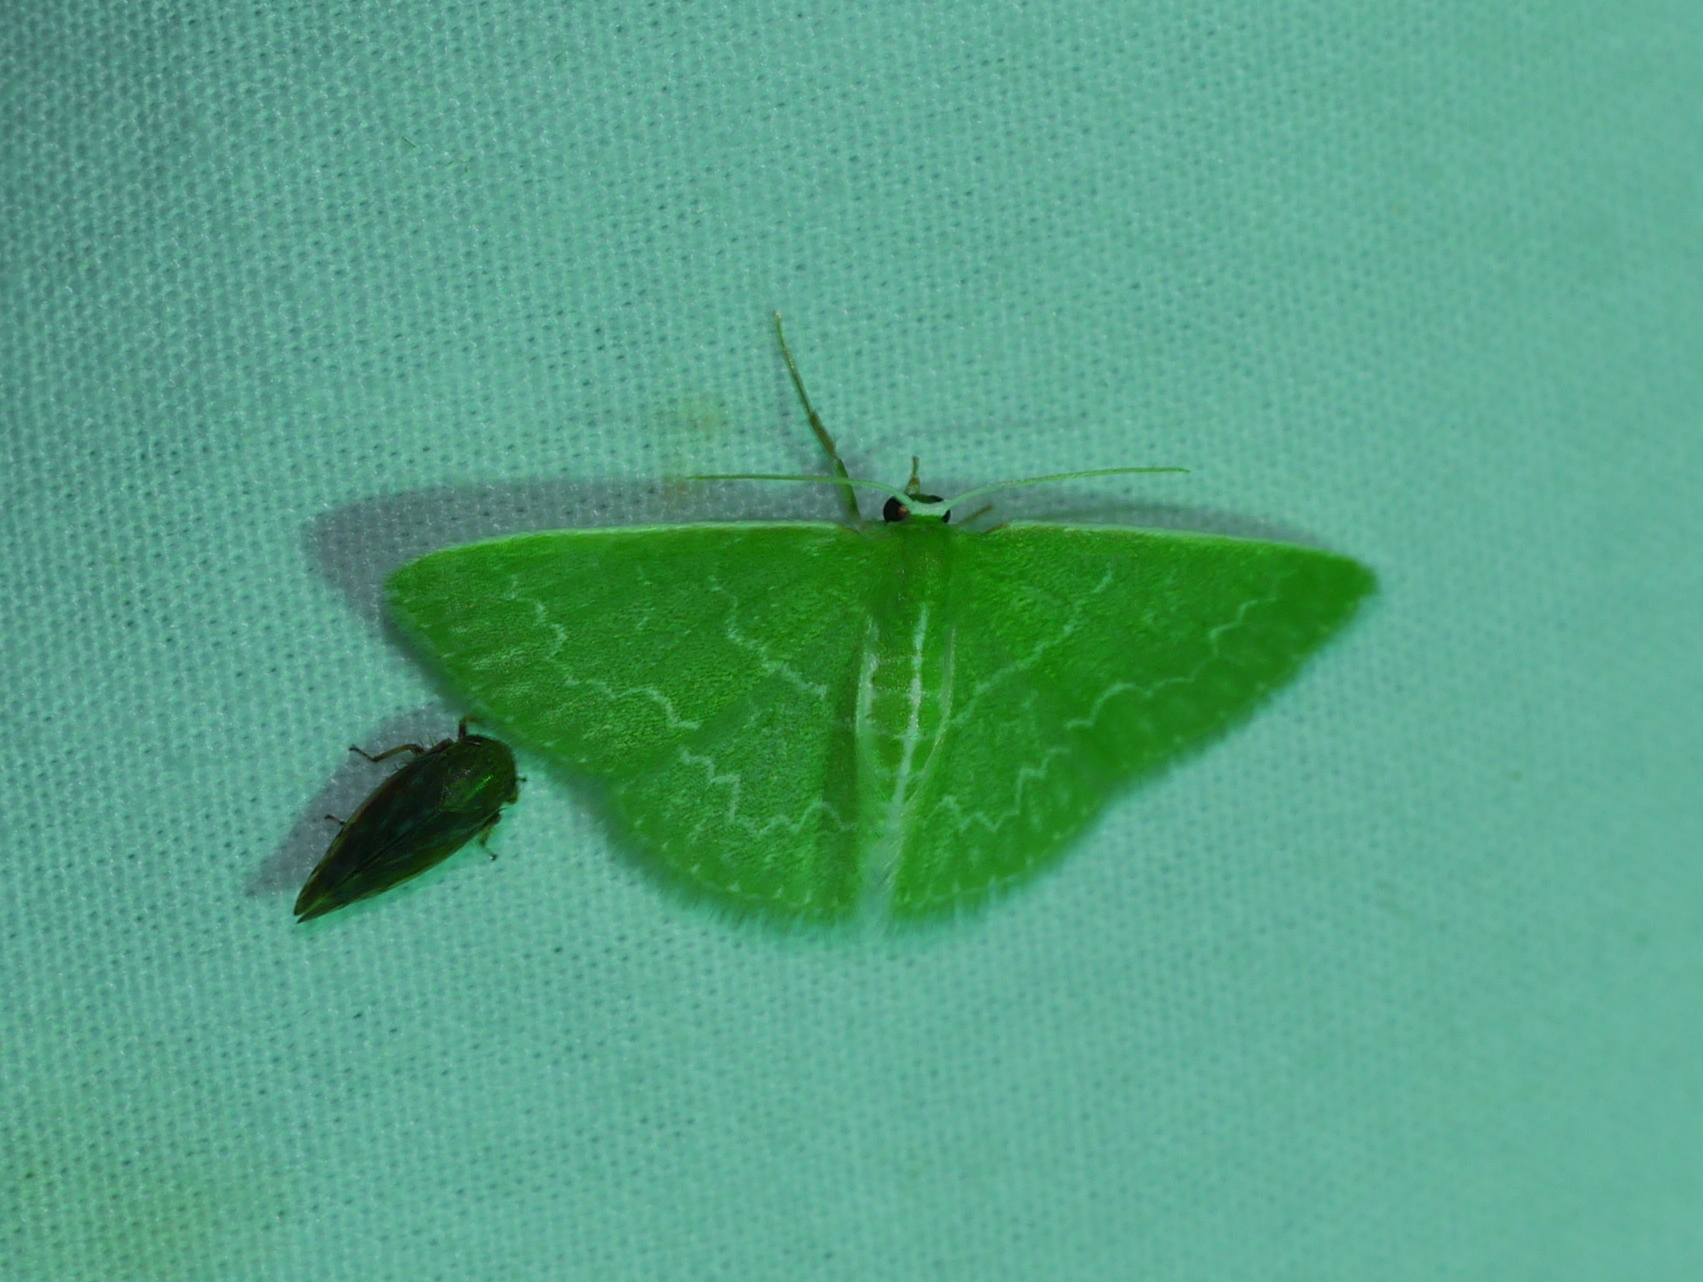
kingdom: Animalia
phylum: Arthropoda
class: Insecta
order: Lepidoptera
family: Geometridae
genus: Synchlora
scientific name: Synchlora frondaria
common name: Southern emerald
